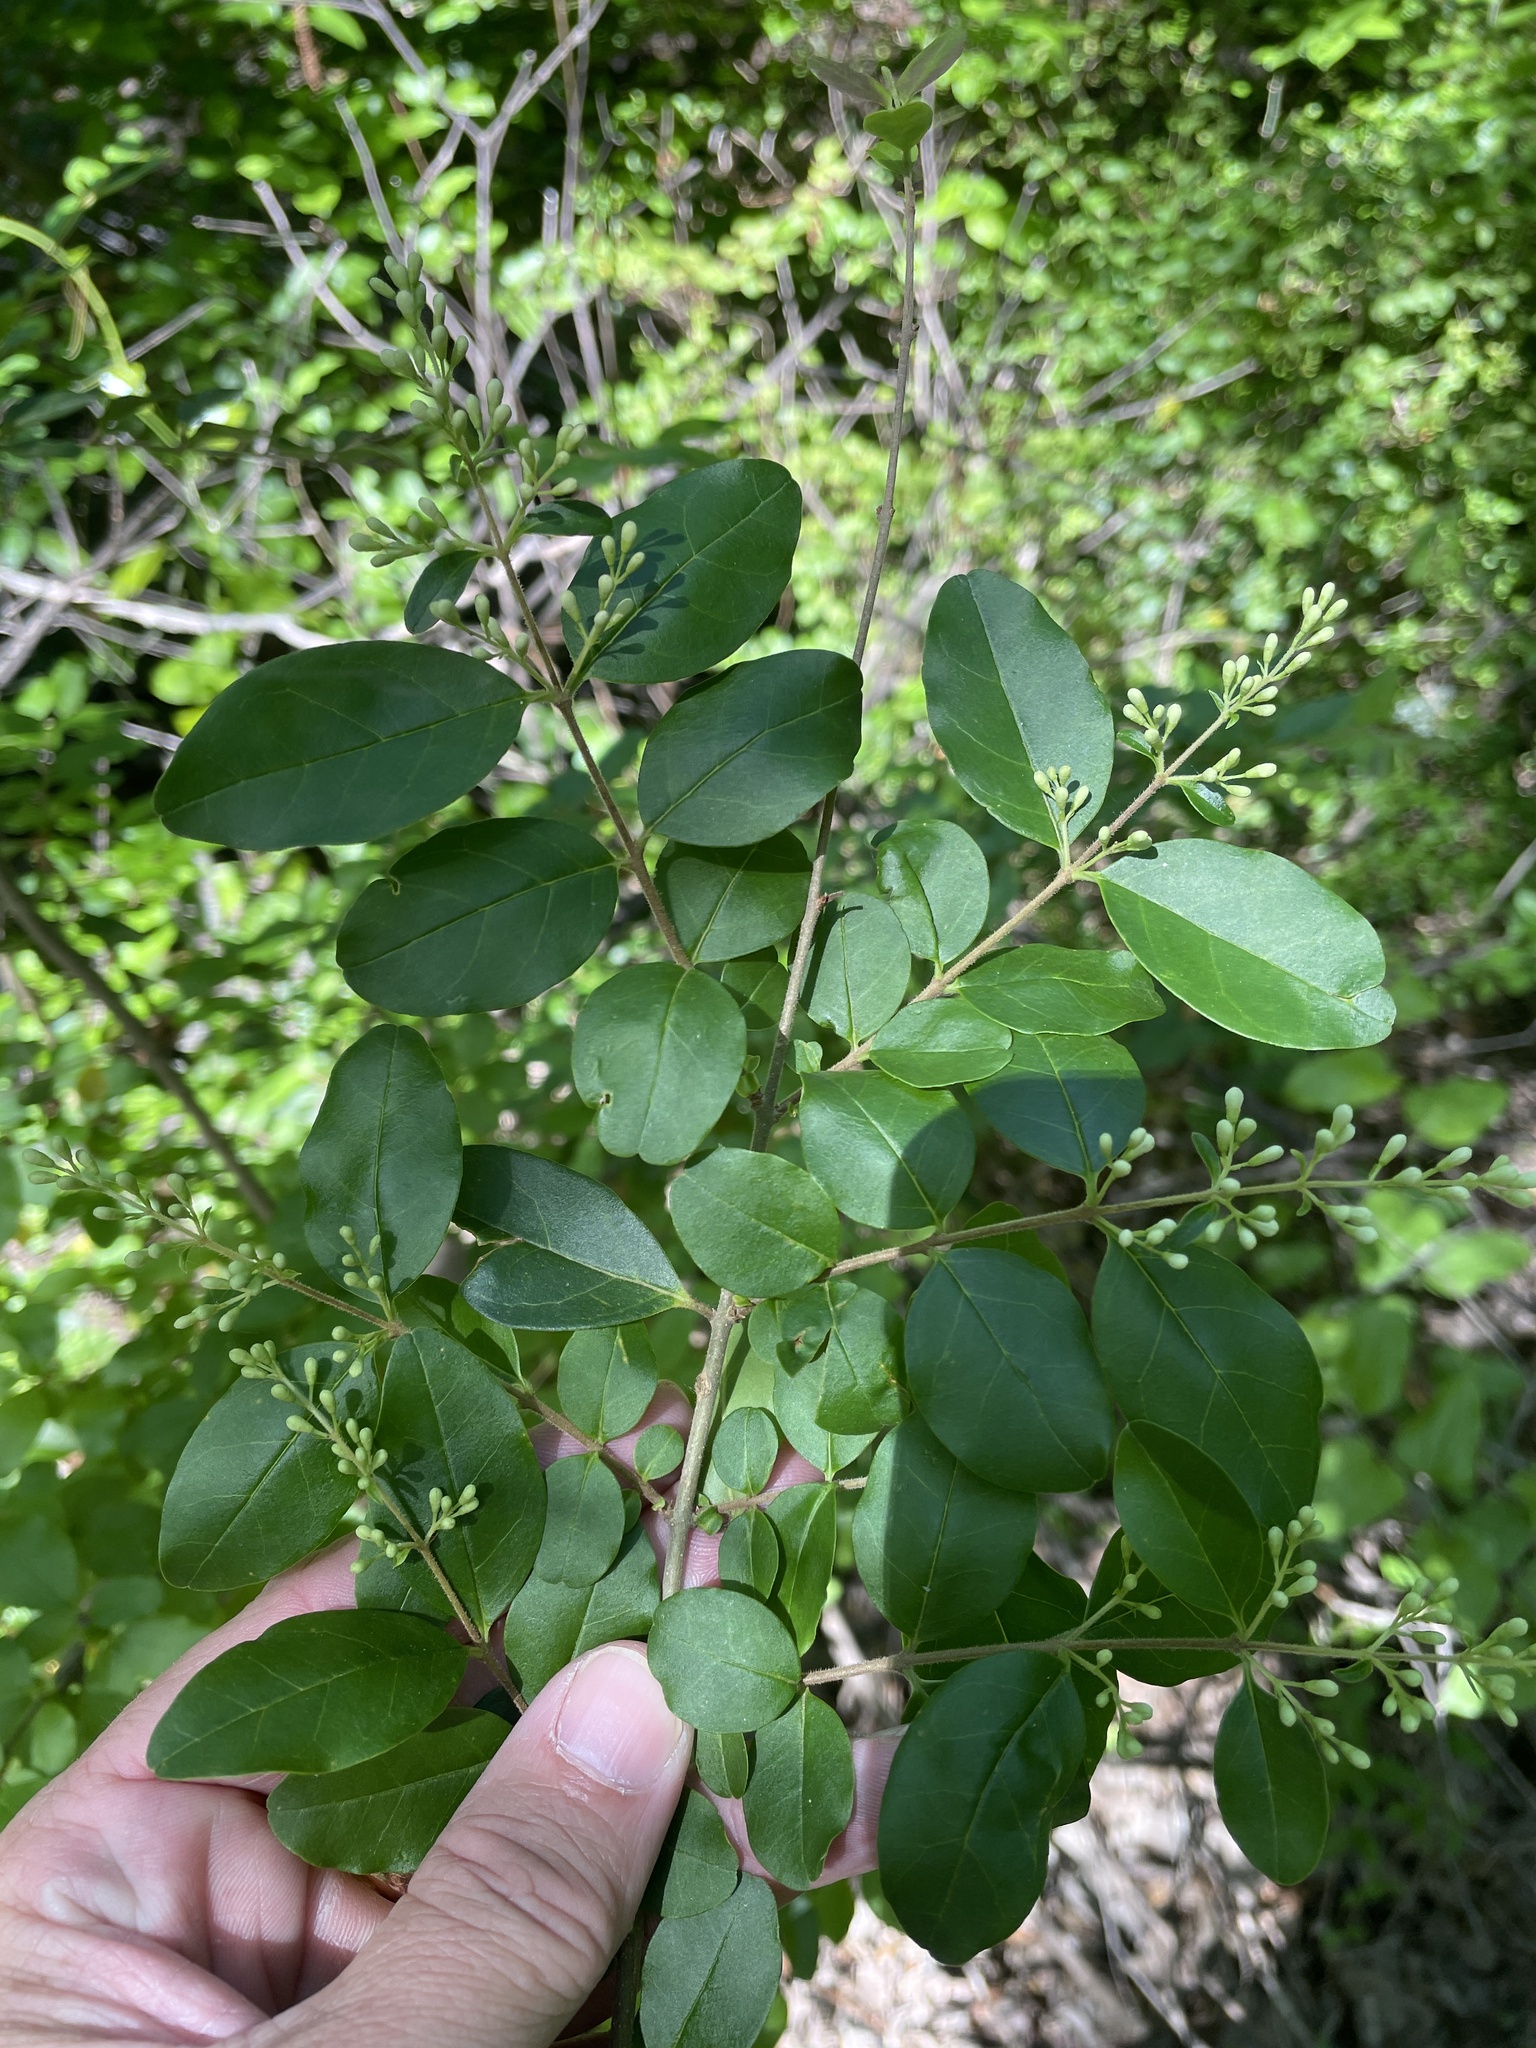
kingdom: Plantae
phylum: Tracheophyta
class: Magnoliopsida
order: Lamiales
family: Oleaceae
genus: Ligustrum
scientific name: Ligustrum sinense
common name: Chinese privet
